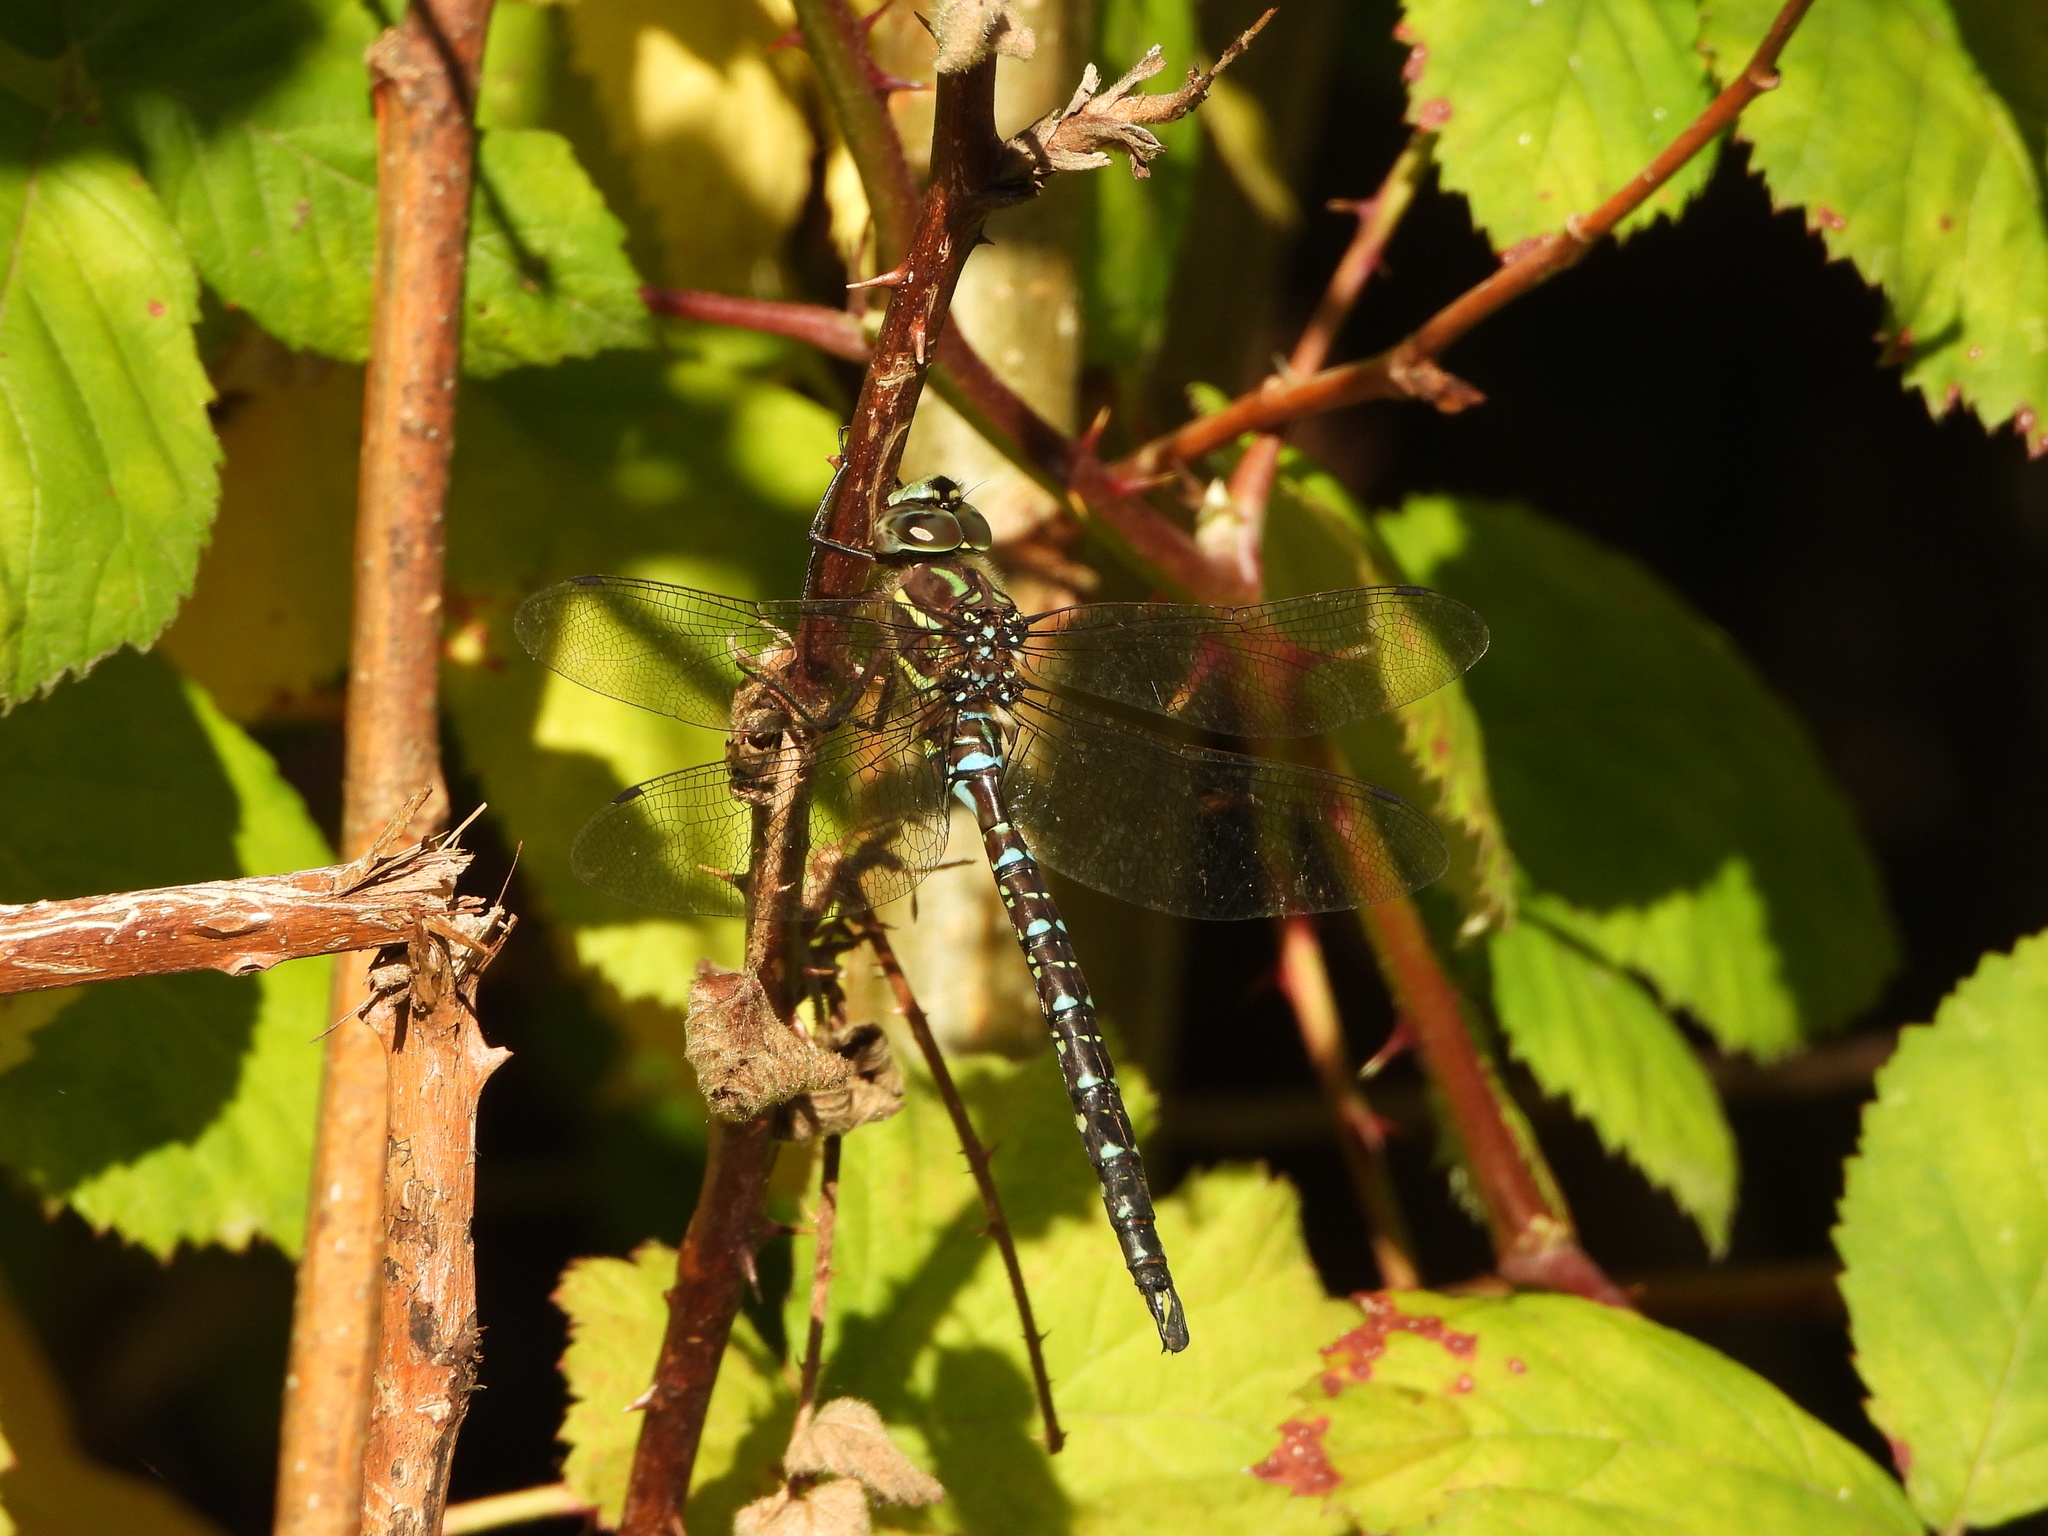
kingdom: Animalia
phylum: Arthropoda
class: Insecta
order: Odonata
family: Aeshnidae
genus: Aeshna
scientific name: Aeshna umbrosa
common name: Shadow darner
